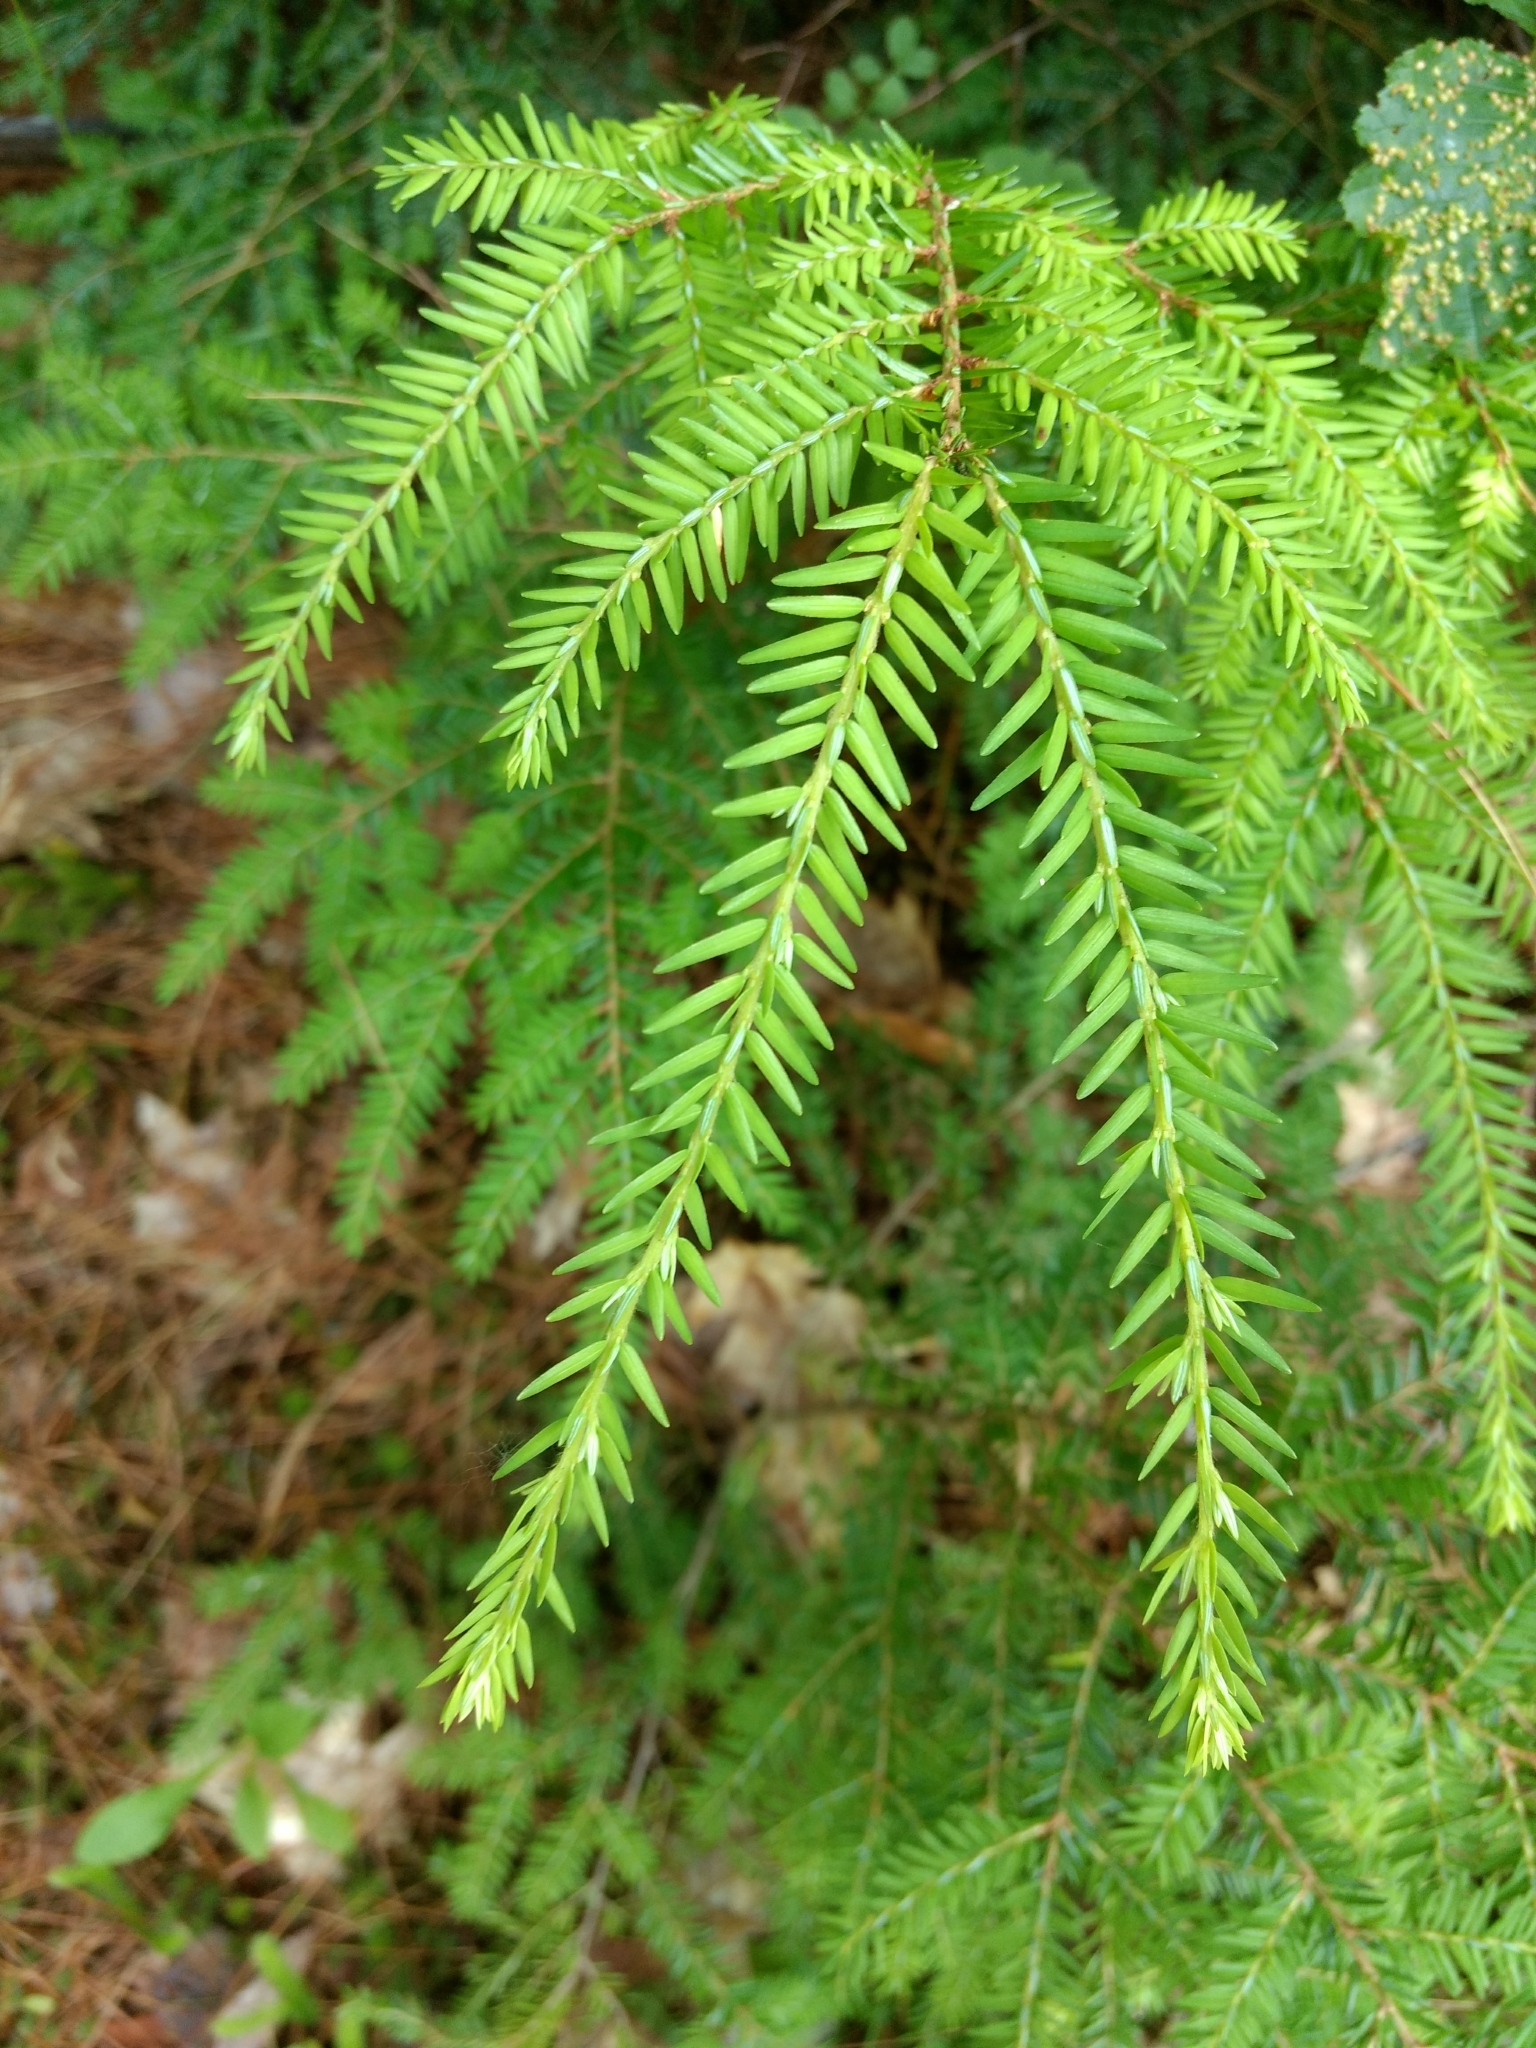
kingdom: Plantae
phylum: Tracheophyta
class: Pinopsida
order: Pinales
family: Pinaceae
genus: Tsuga
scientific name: Tsuga canadensis
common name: Eastern hemlock
